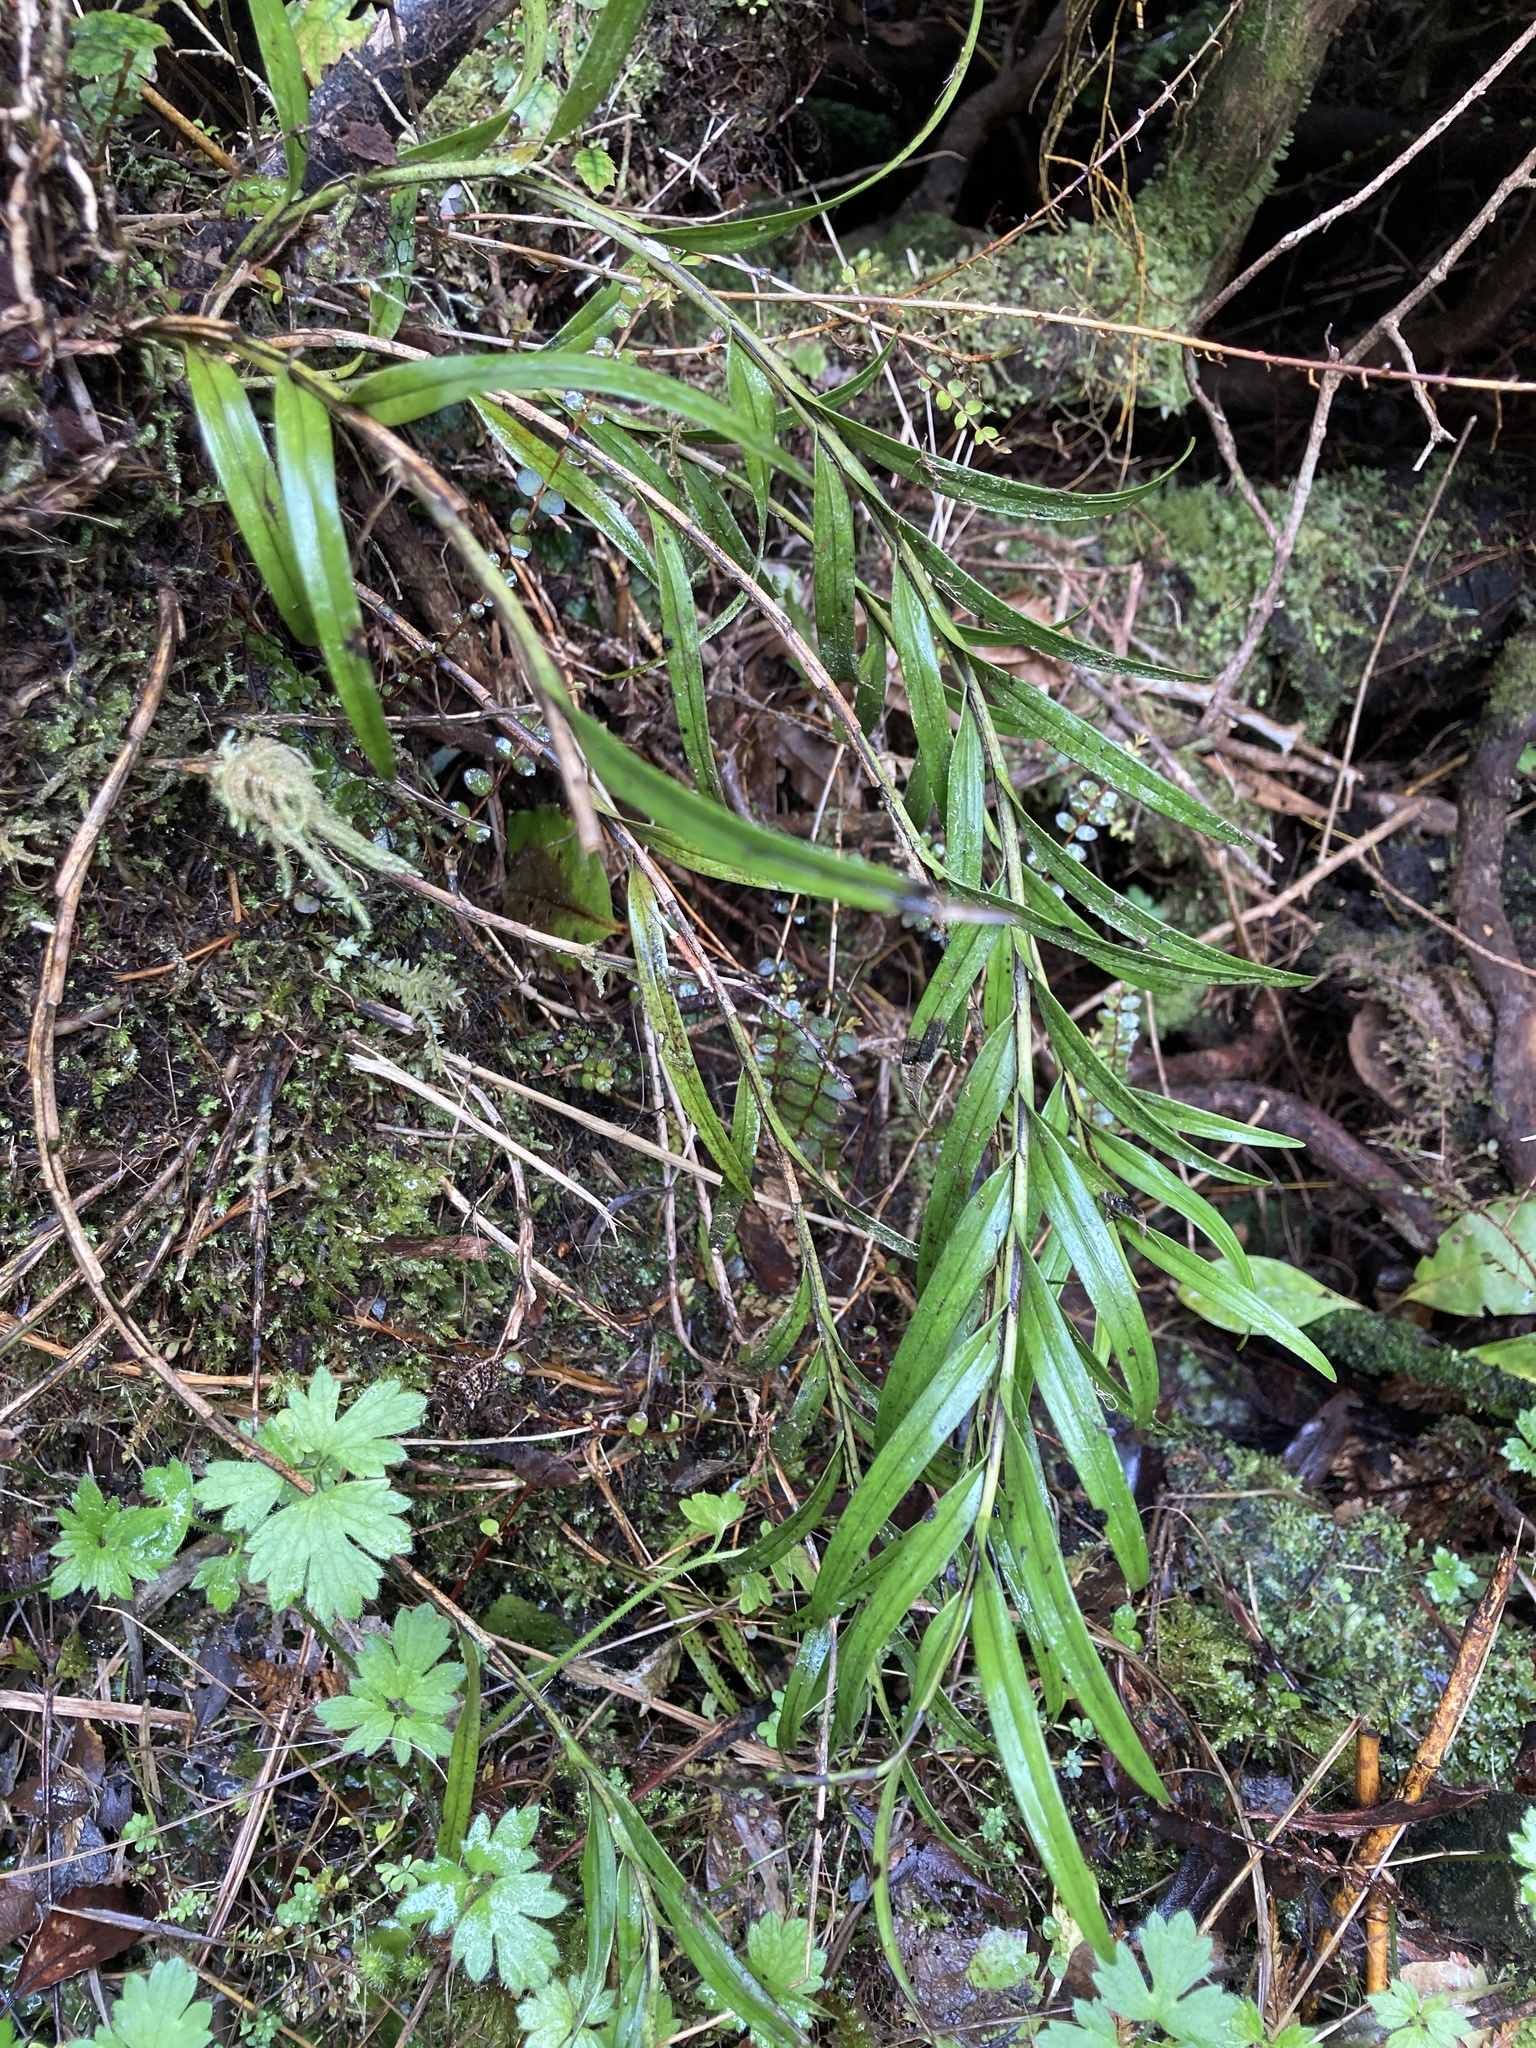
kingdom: Plantae
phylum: Tracheophyta
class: Liliopsida
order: Asparagales
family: Orchidaceae
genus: Earina
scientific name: Earina autumnalis
